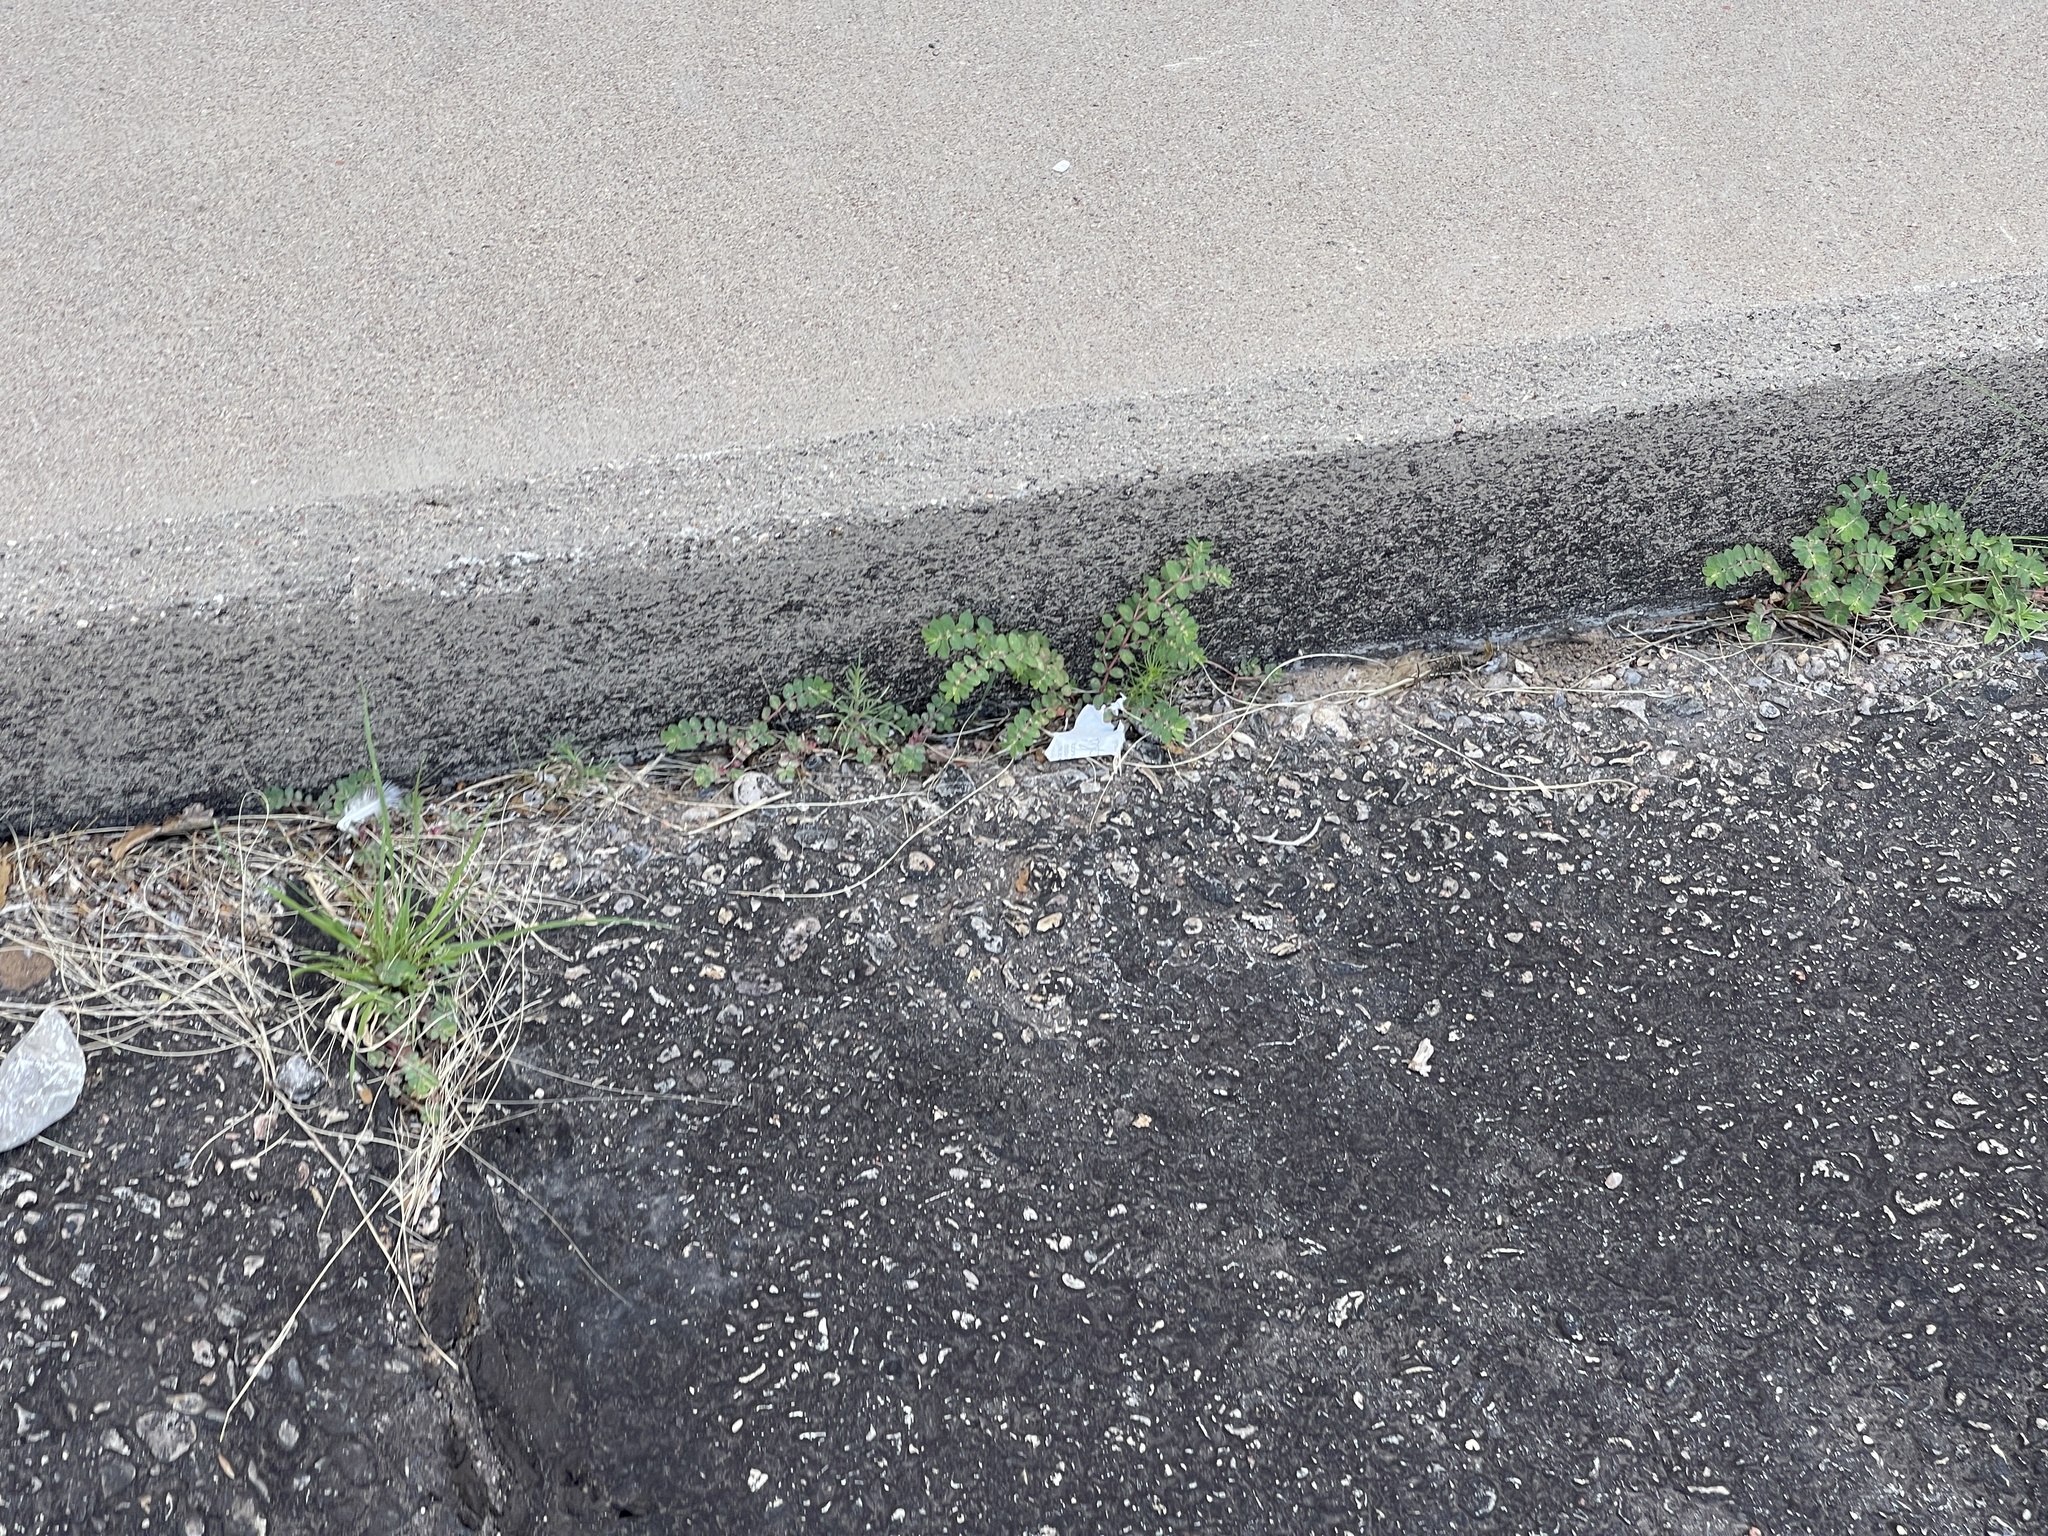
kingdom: Plantae
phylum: Tracheophyta
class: Magnoliopsida
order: Malpighiales
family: Euphorbiaceae
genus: Euphorbia
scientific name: Euphorbia prostrata
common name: Prostrate sandmat
